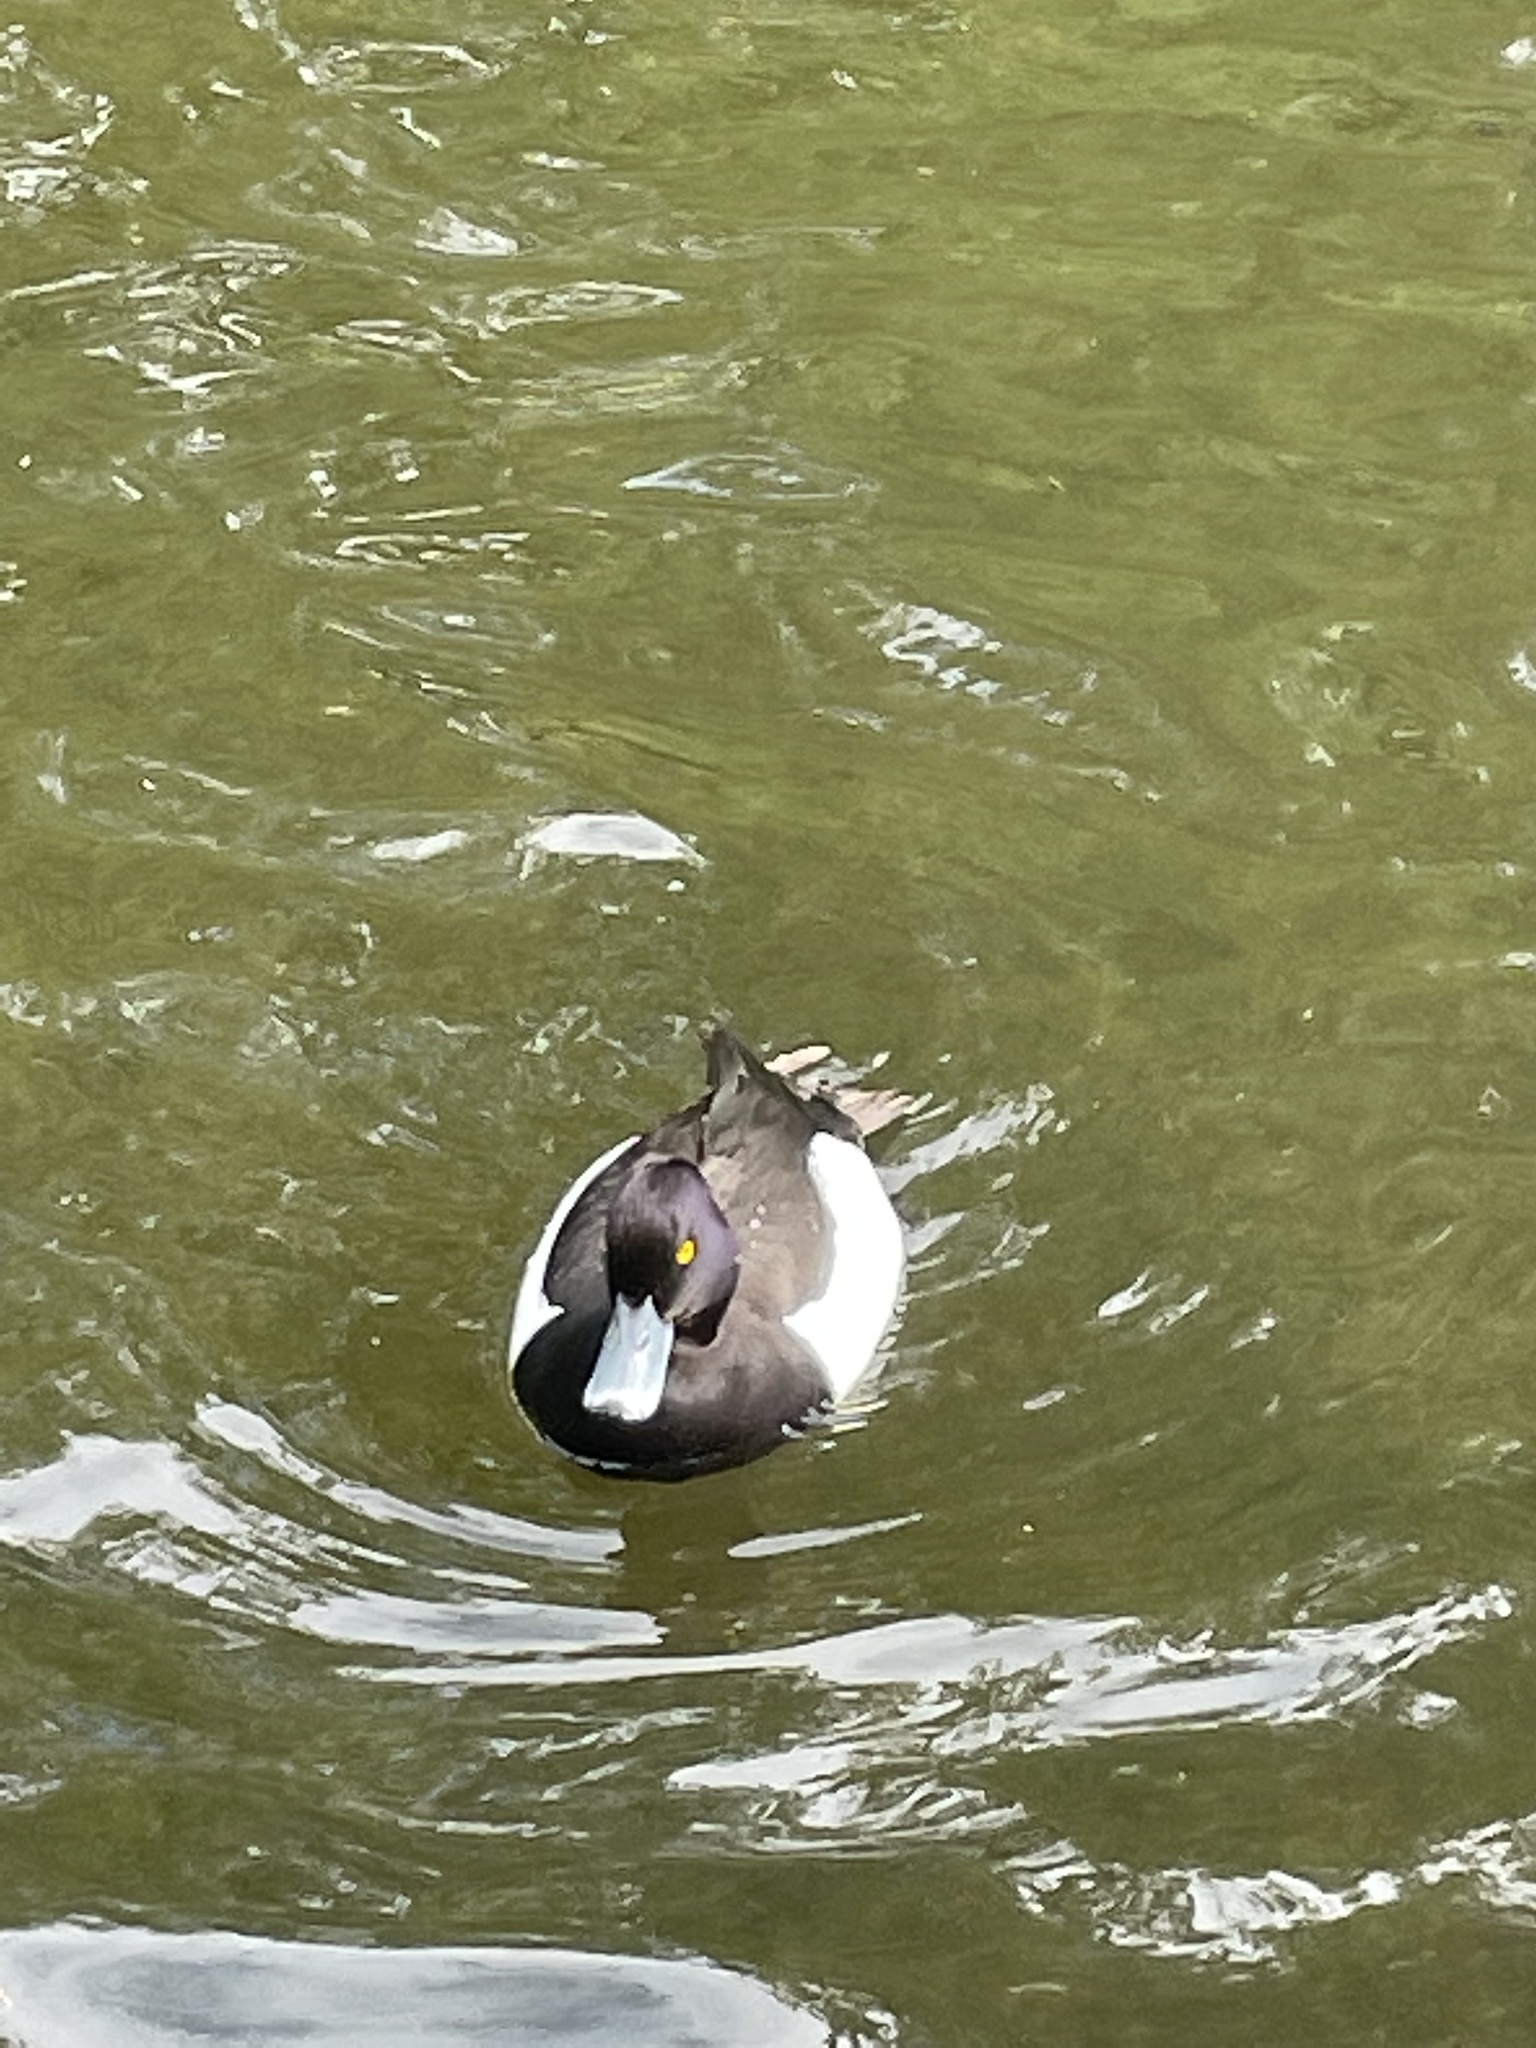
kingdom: Animalia
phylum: Chordata
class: Aves
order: Anseriformes
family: Anatidae
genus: Aythya
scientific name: Aythya fuligula
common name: Tufted duck
